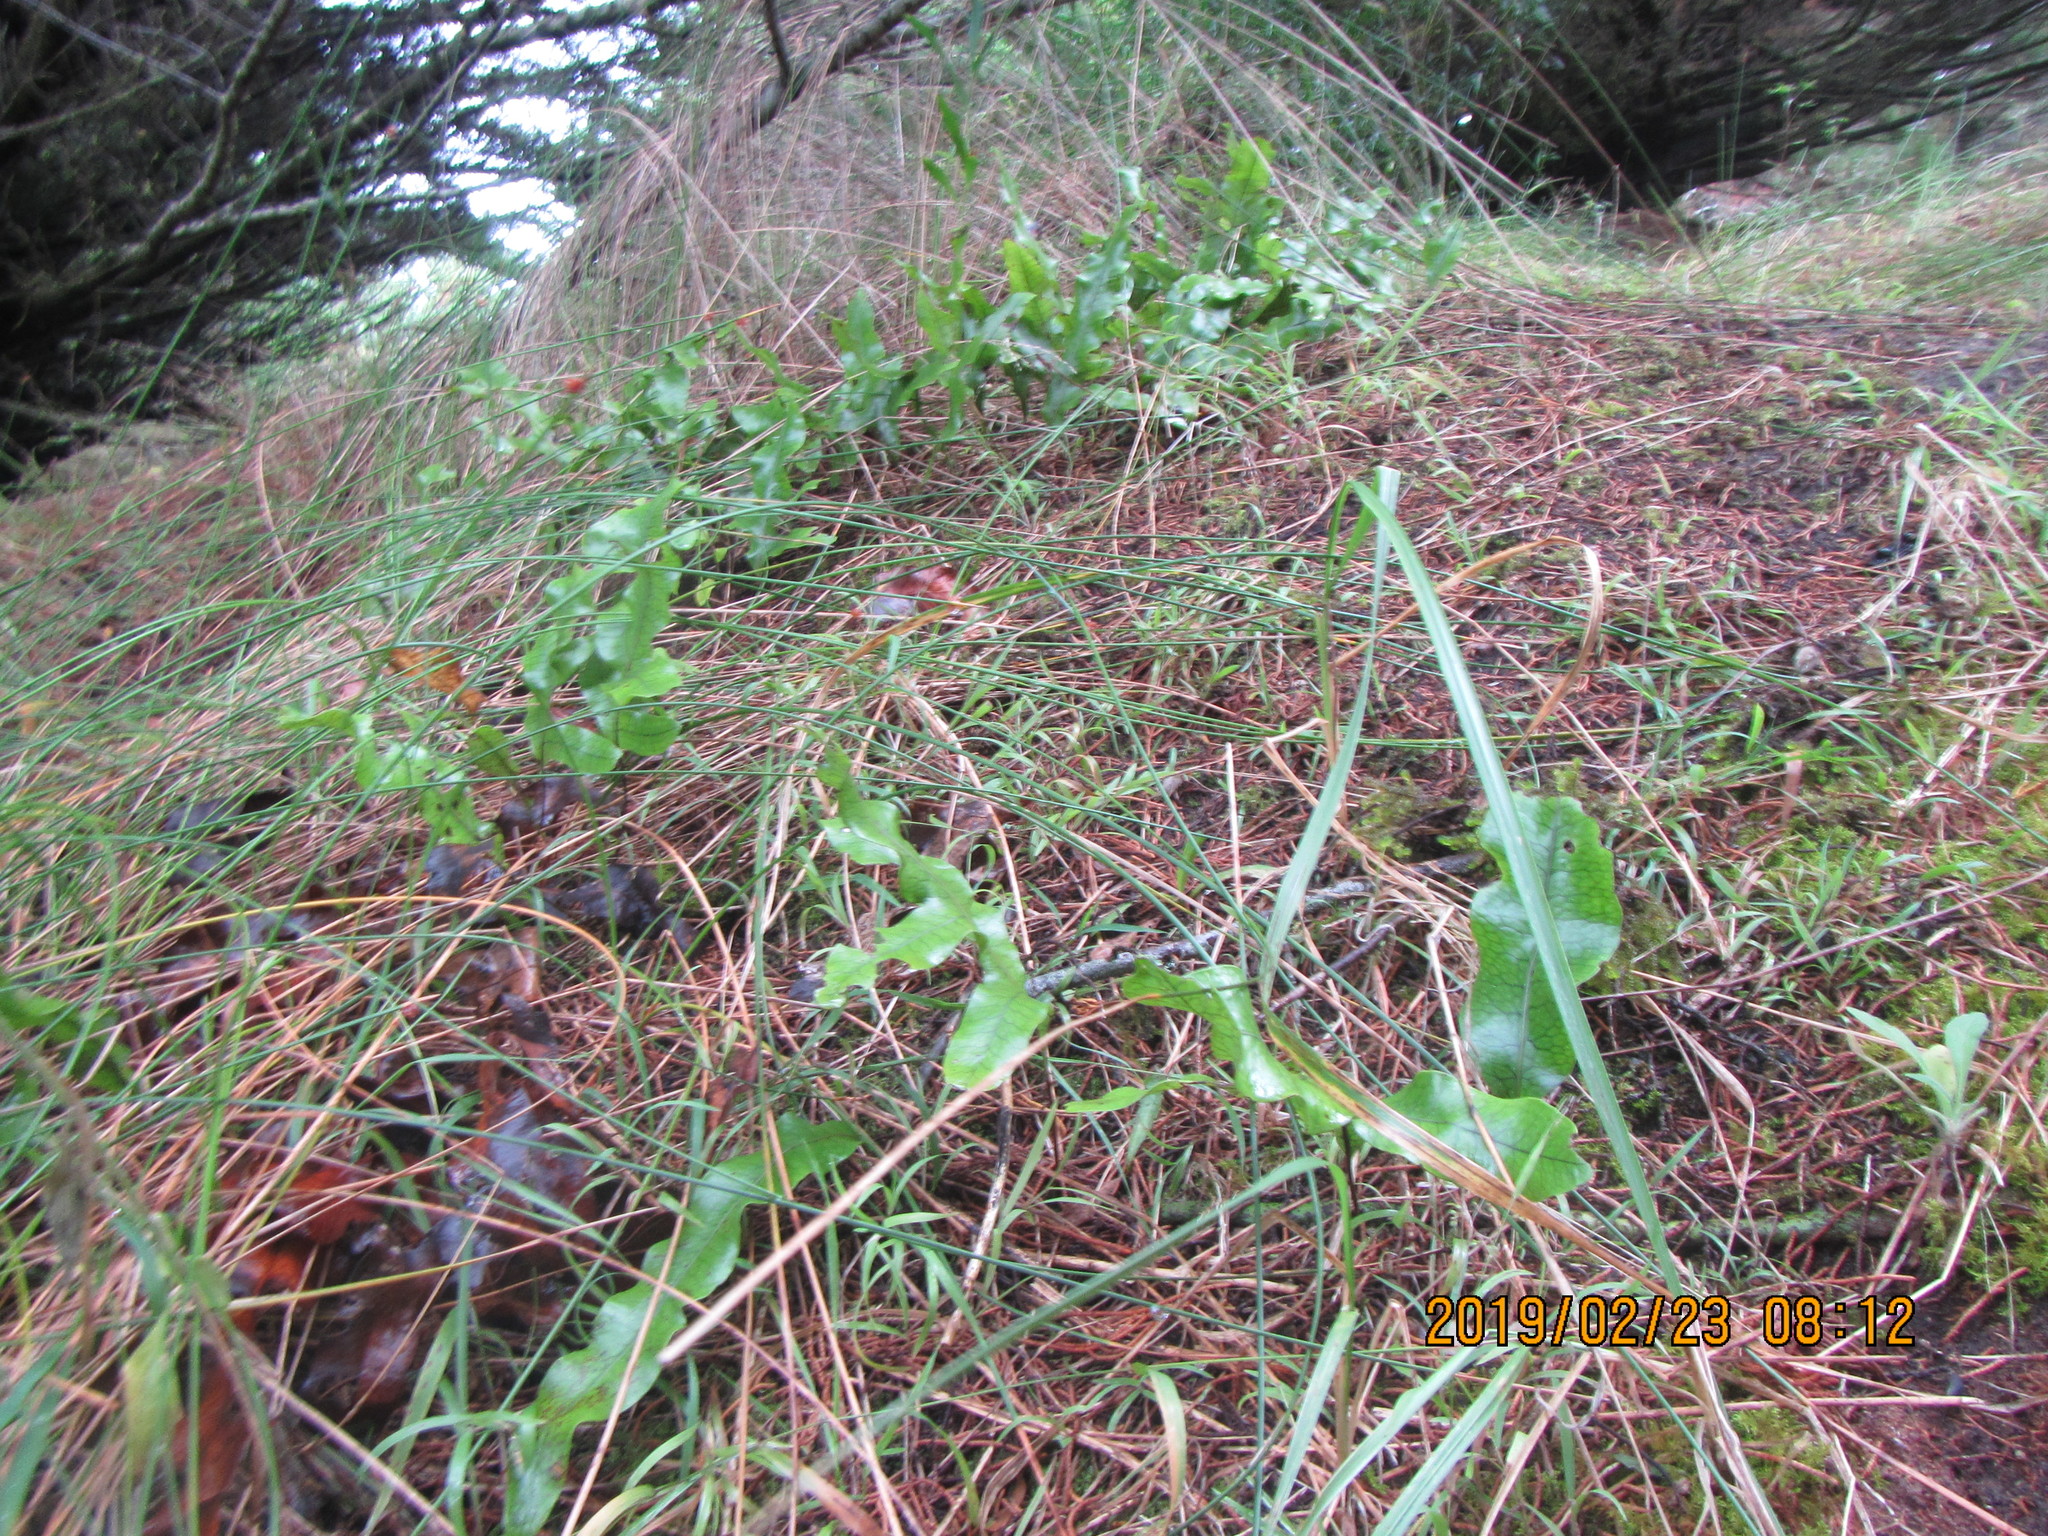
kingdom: Plantae
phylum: Tracheophyta
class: Polypodiopsida
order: Polypodiales
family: Polypodiaceae
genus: Lecanopteris
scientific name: Lecanopteris pustulata
